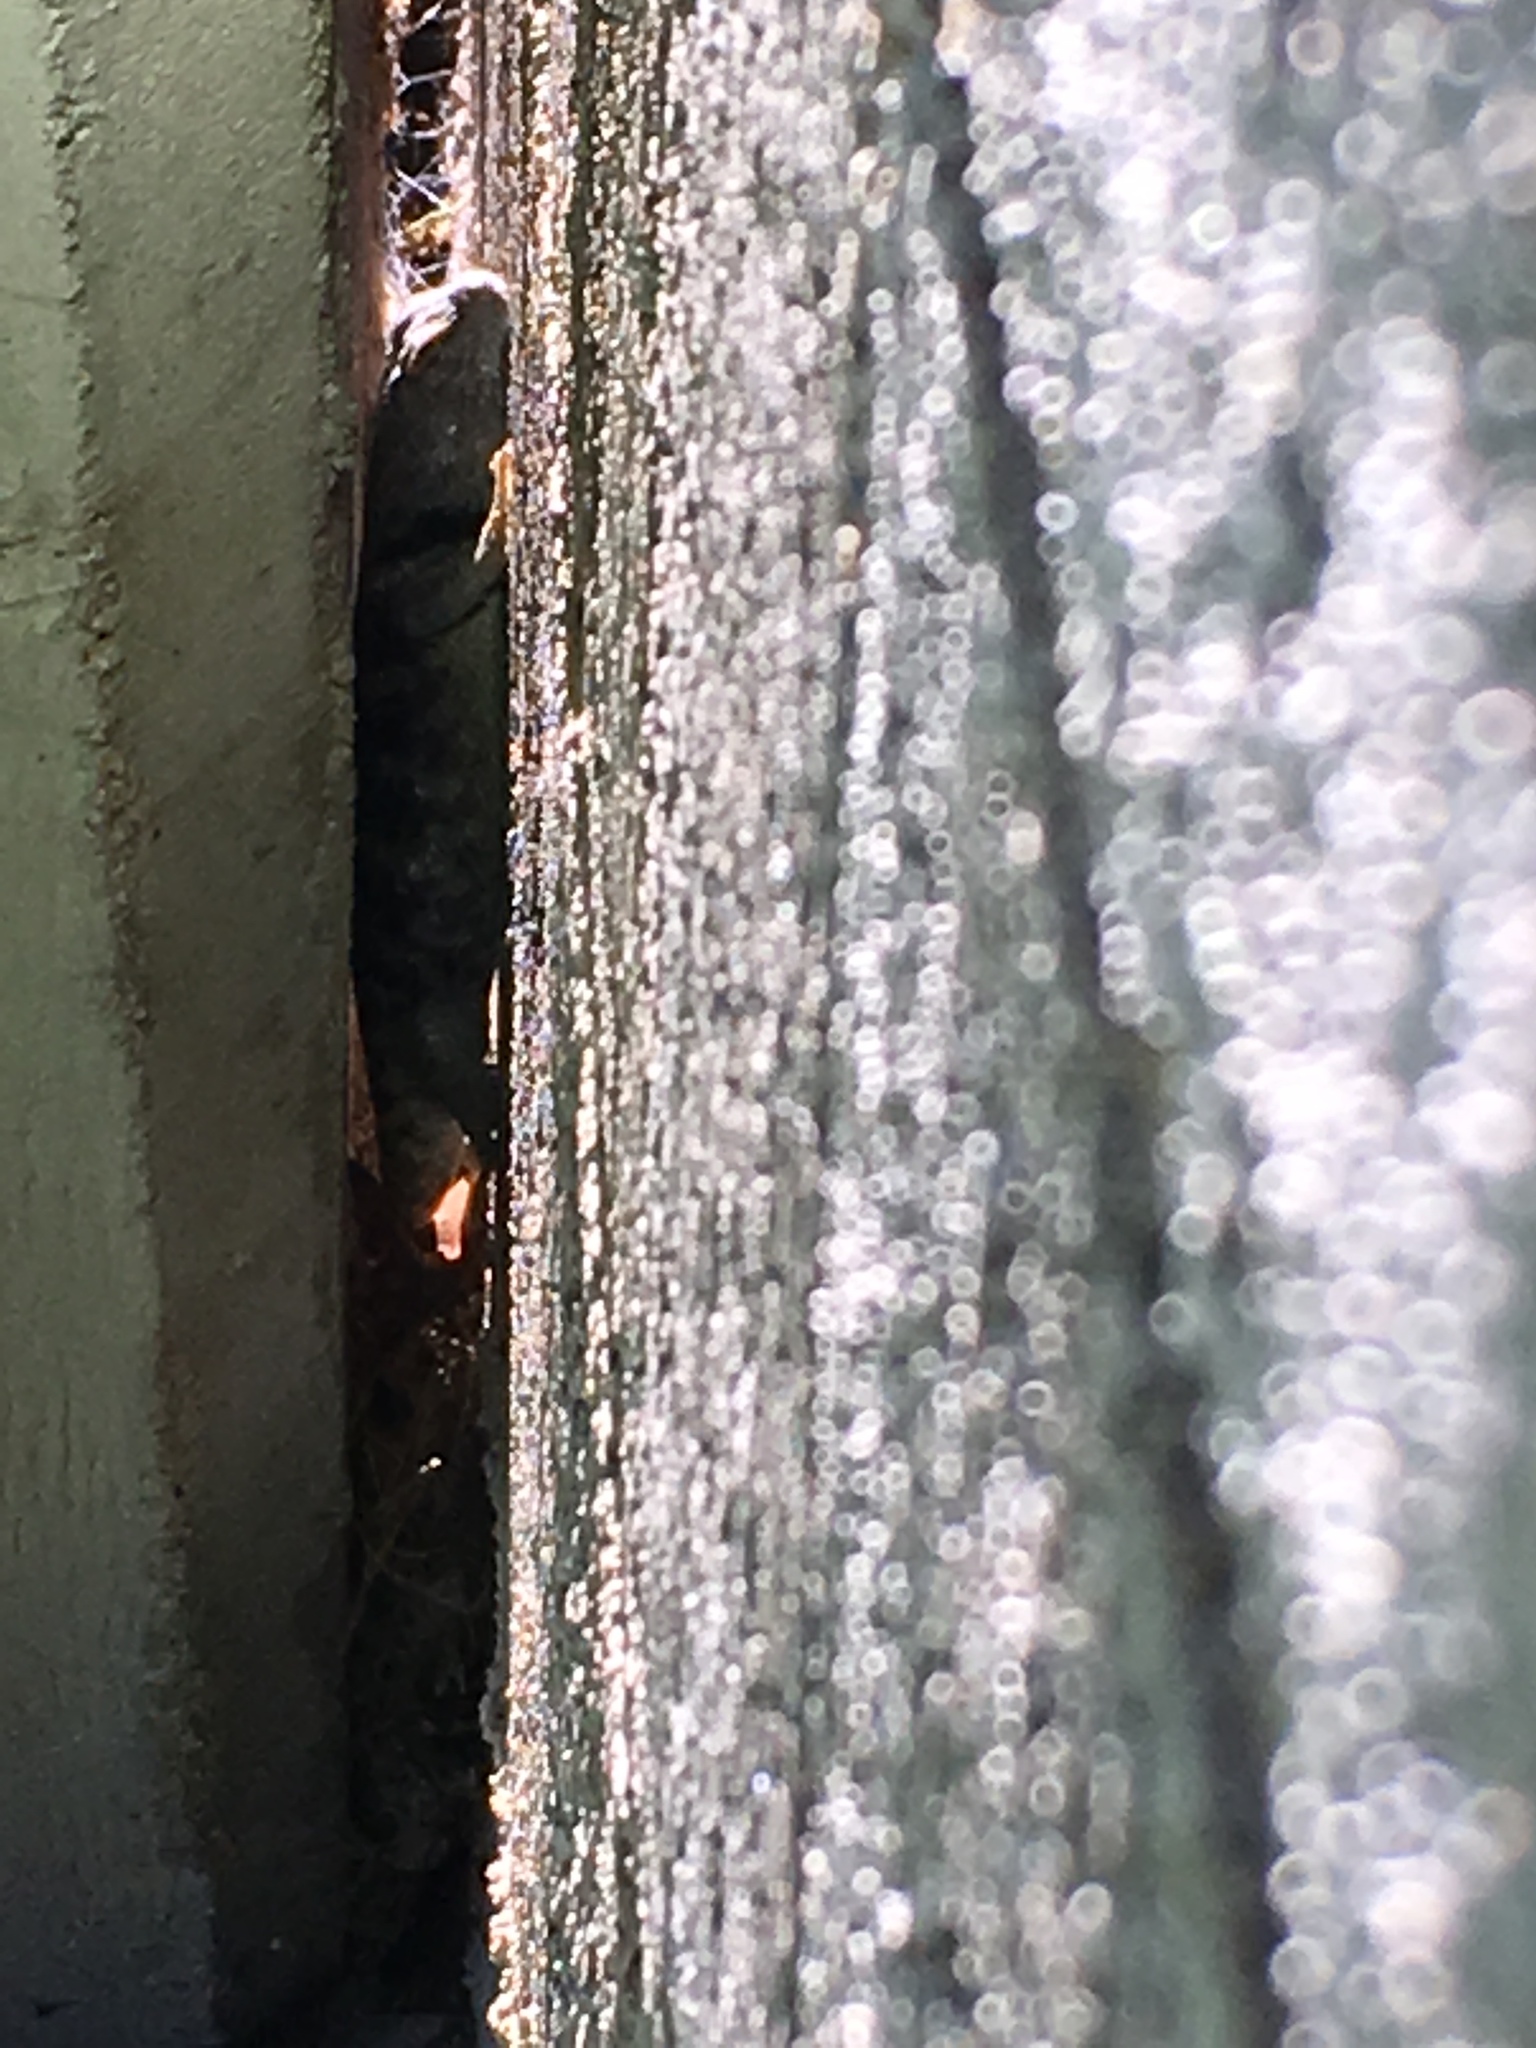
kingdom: Animalia
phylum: Chordata
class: Squamata
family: Phrynosomatidae
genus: Sceloporus
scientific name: Sceloporus uniformis
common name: Yellow-backed spiny lizard
